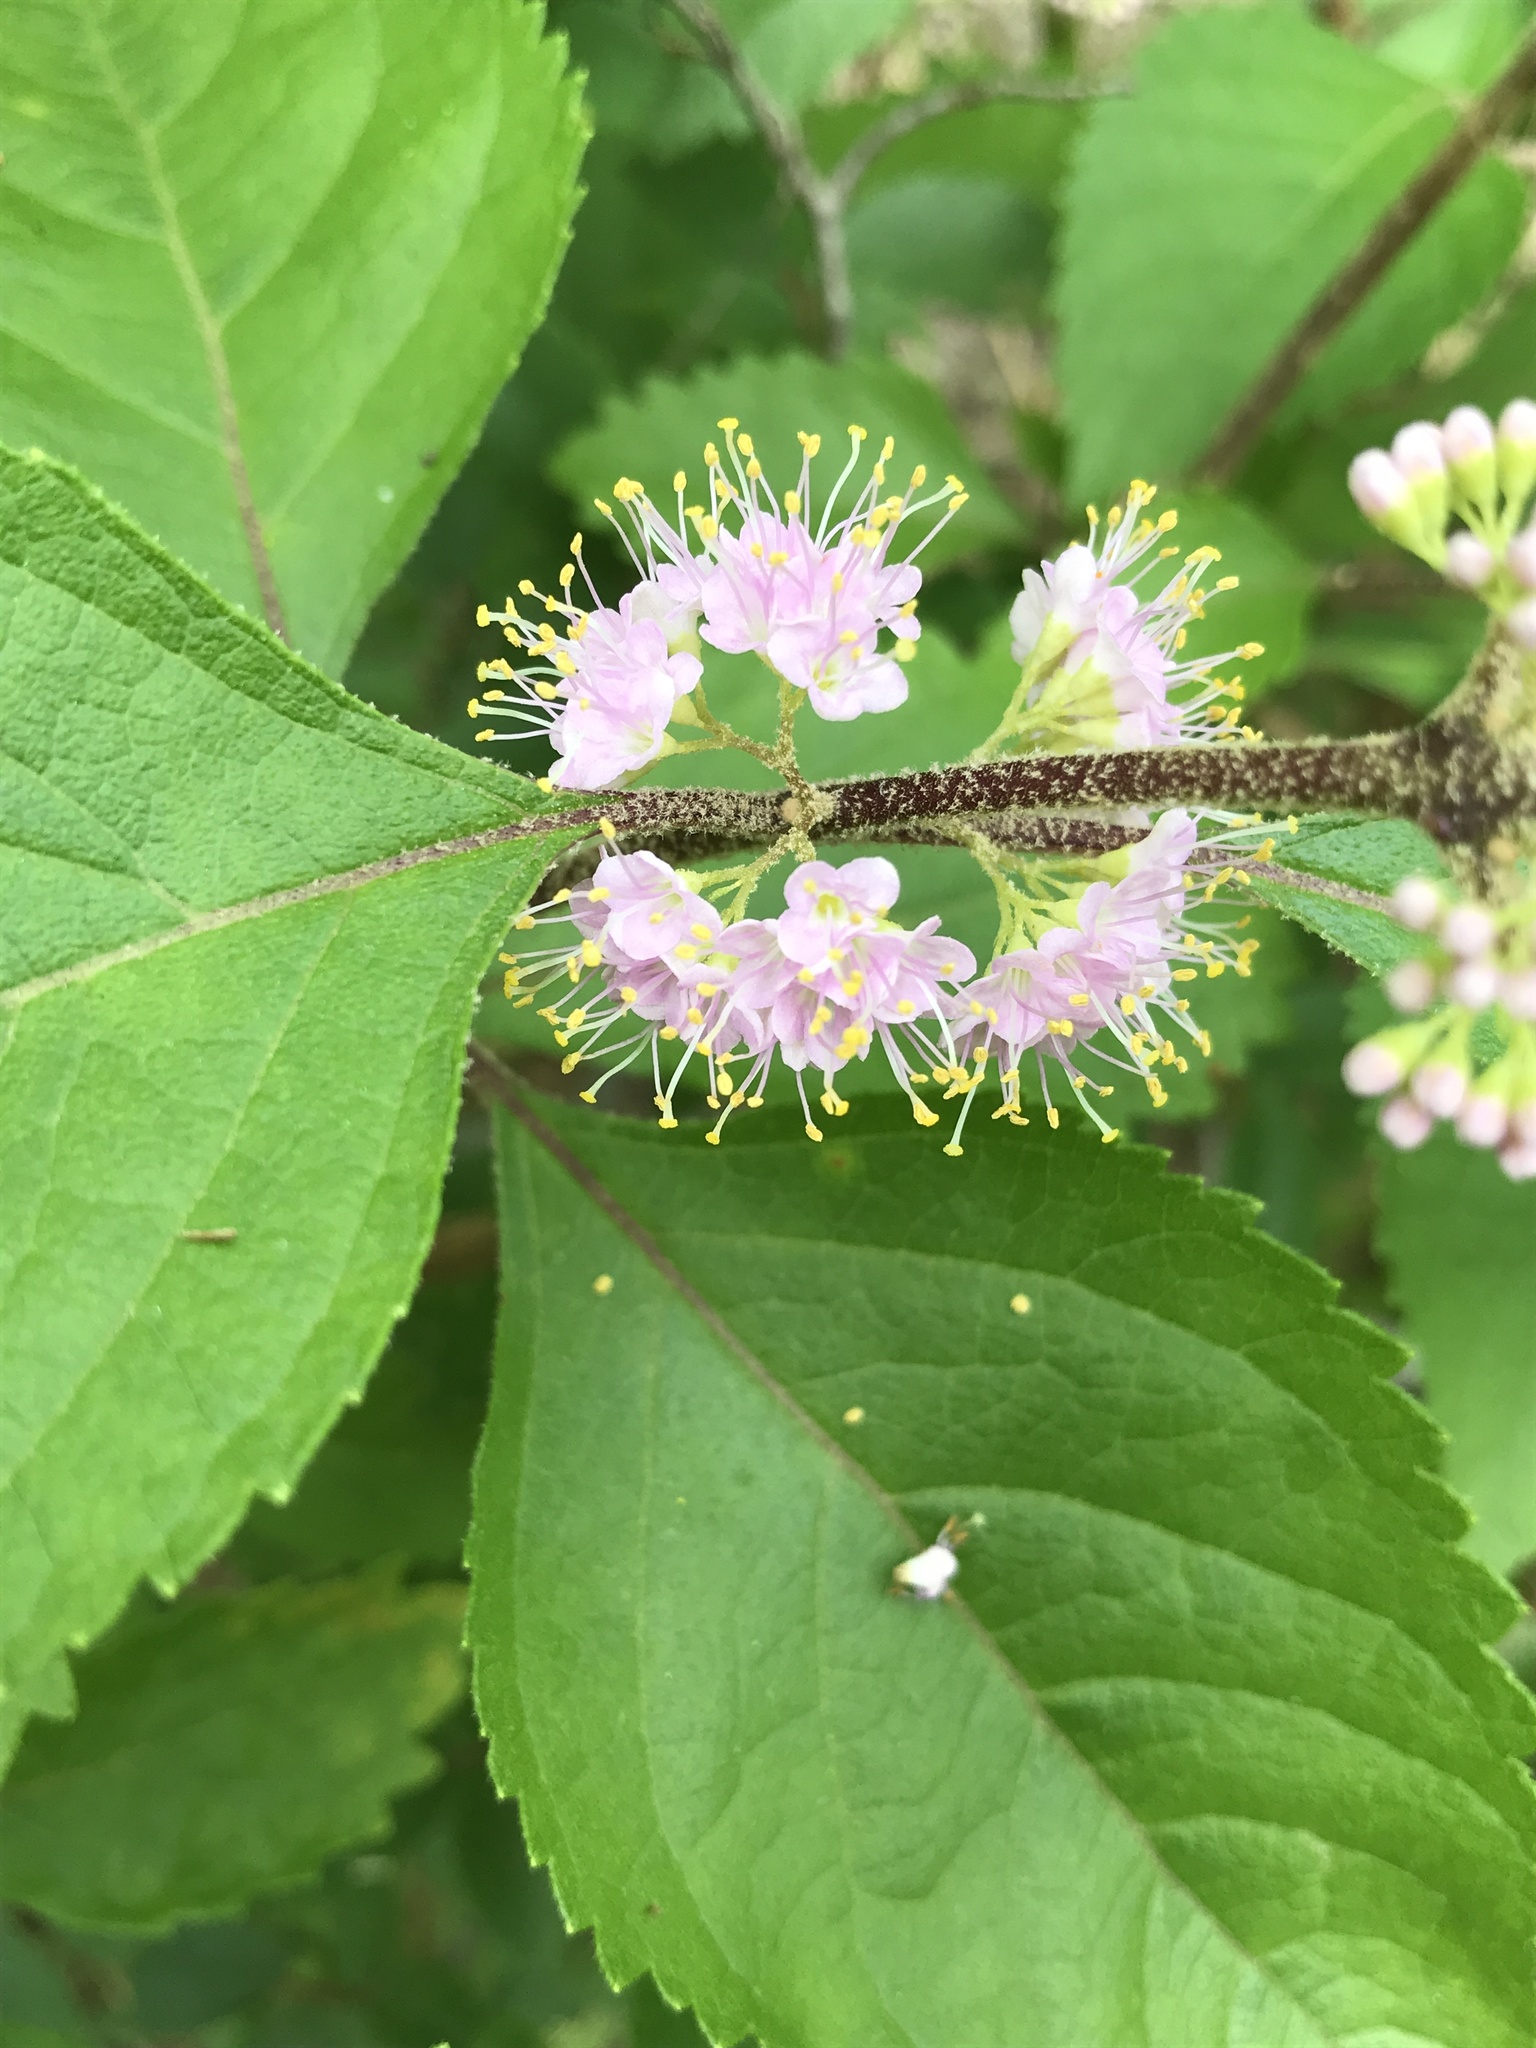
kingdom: Plantae
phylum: Tracheophyta
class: Magnoliopsida
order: Lamiales
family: Lamiaceae
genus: Callicarpa
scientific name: Callicarpa americana
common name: American beautyberry
